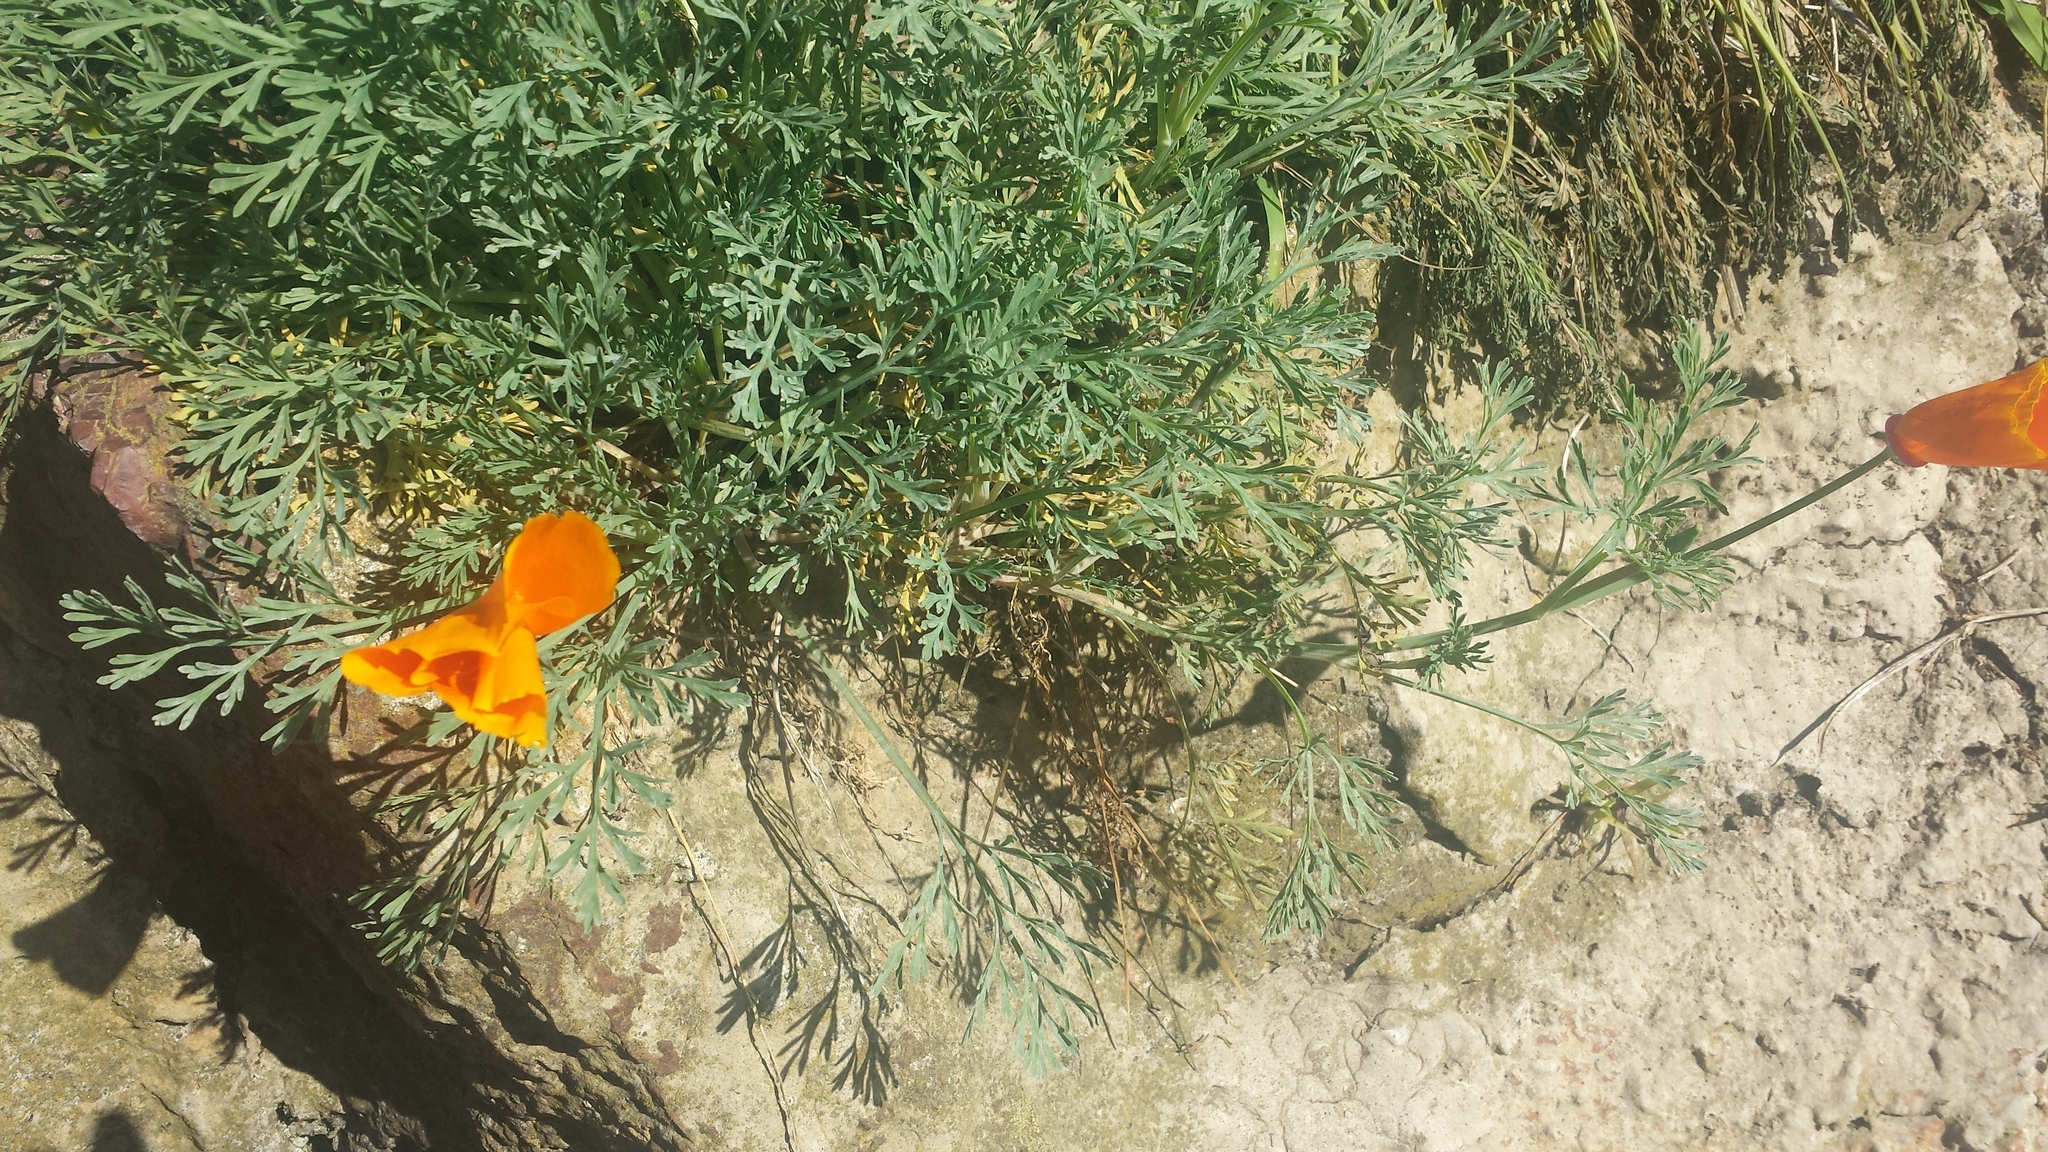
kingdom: Plantae
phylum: Tracheophyta
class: Magnoliopsida
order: Ranunculales
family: Papaveraceae
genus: Eschscholzia
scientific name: Eschscholzia californica
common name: California poppy
